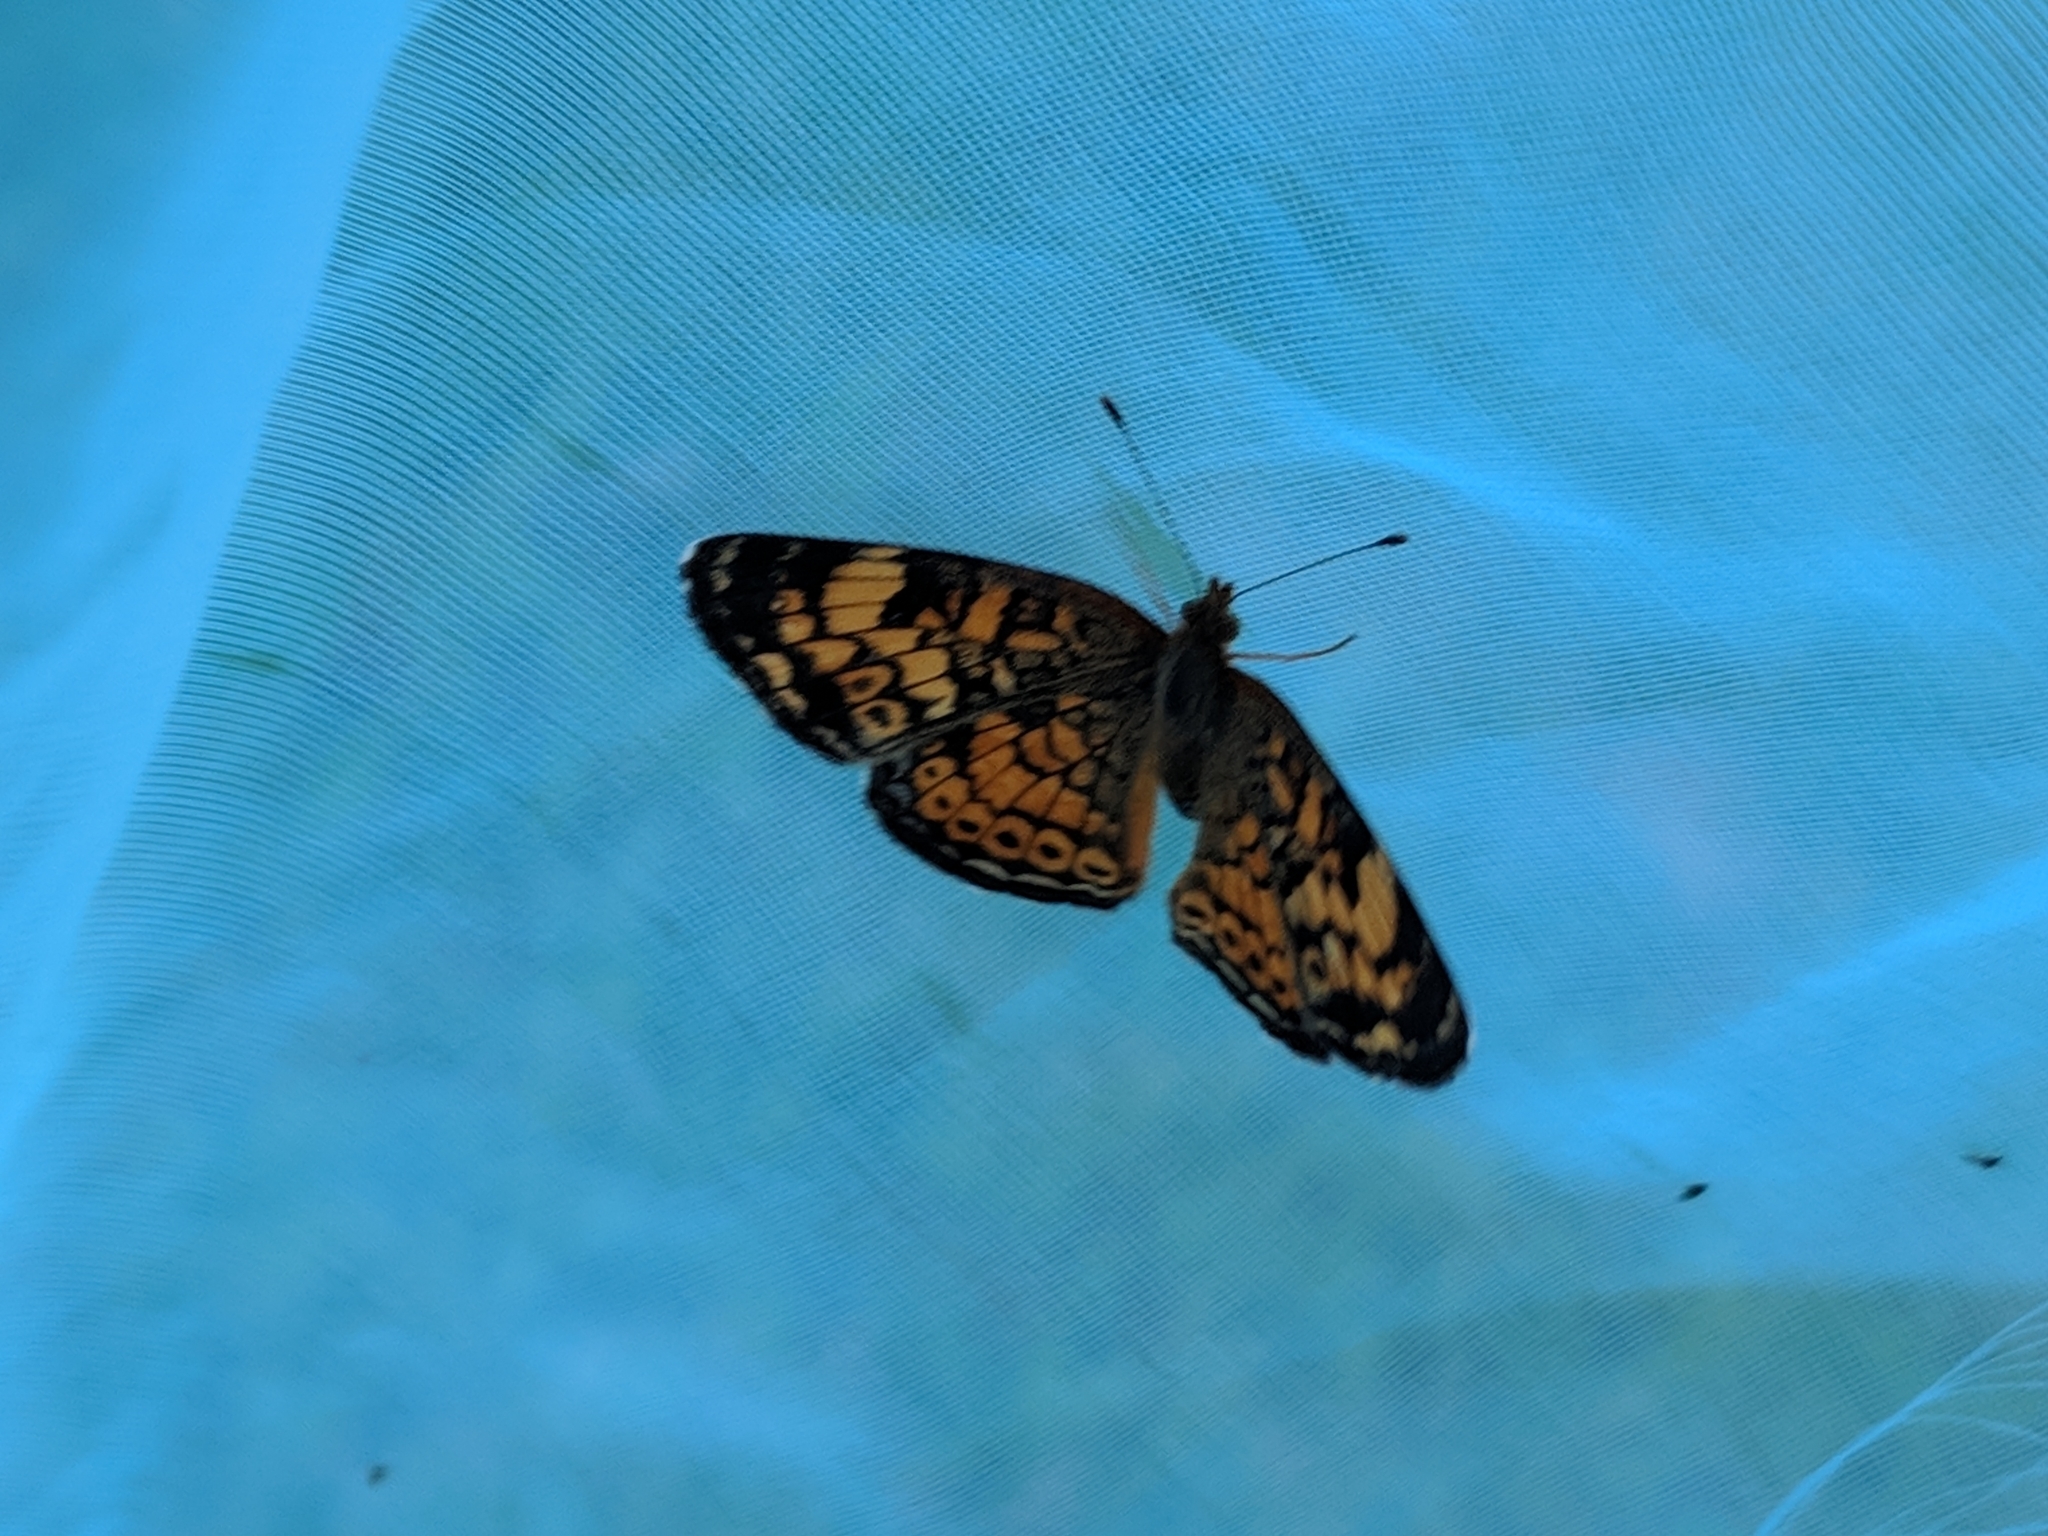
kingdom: Animalia
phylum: Arthropoda
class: Insecta
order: Lepidoptera
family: Nymphalidae
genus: Phyciodes
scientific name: Phyciodes tharos
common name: Pearl crescent
